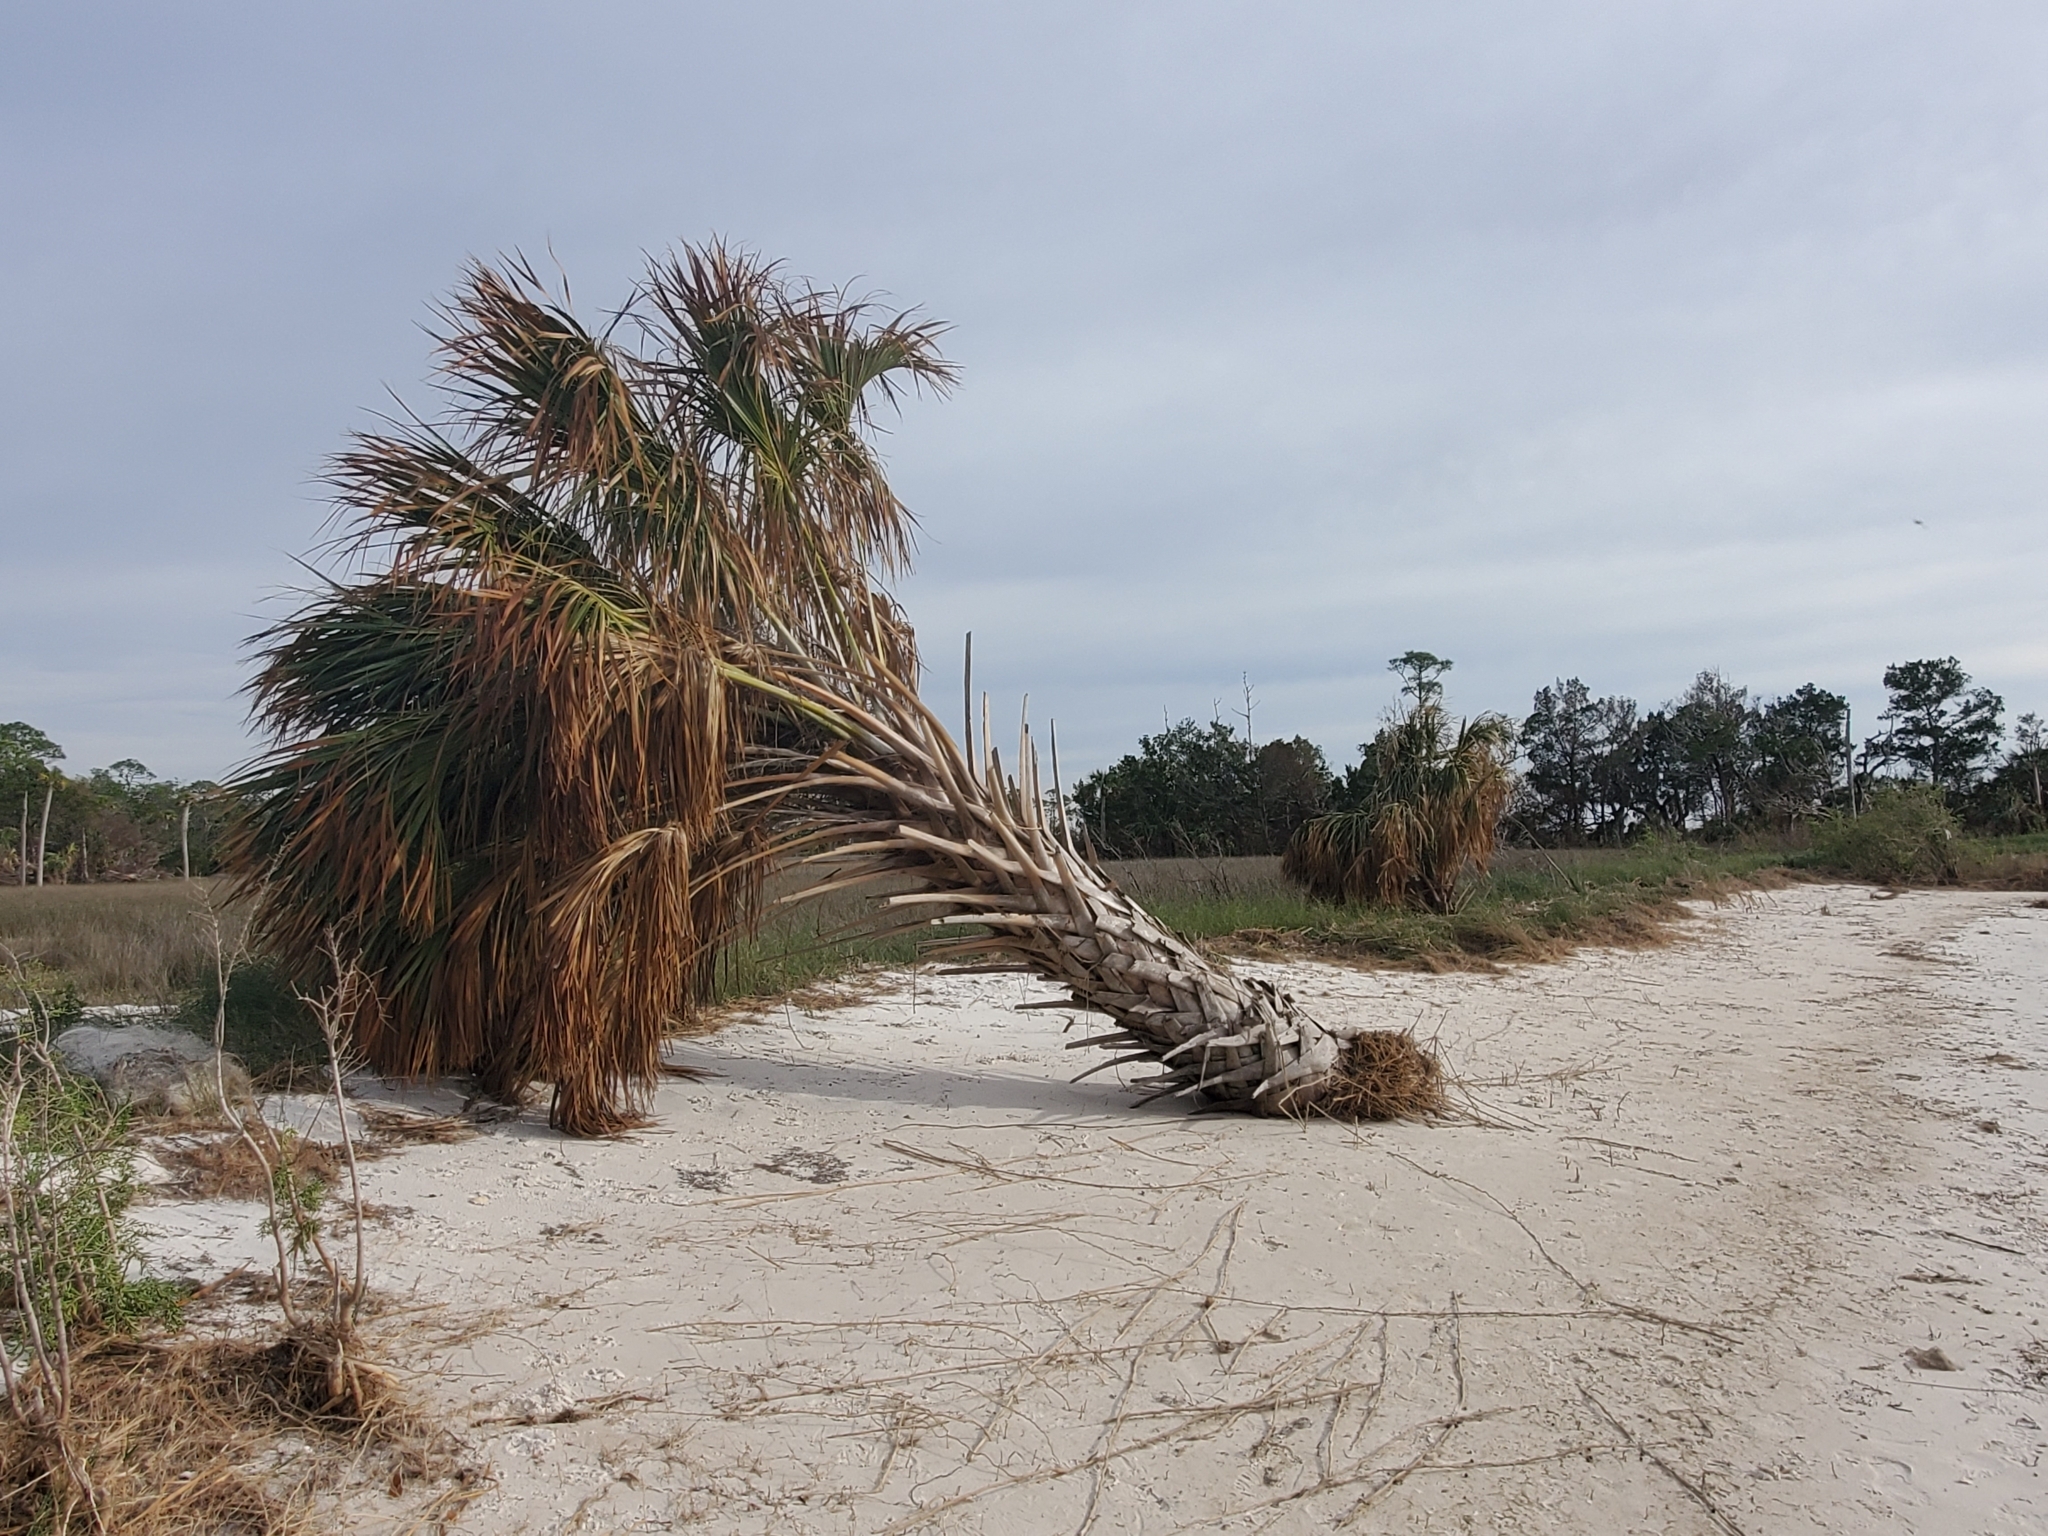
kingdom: Plantae
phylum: Tracheophyta
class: Liliopsida
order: Arecales
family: Arecaceae
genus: Sabal
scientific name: Sabal palmetto
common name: Blue palmetto
